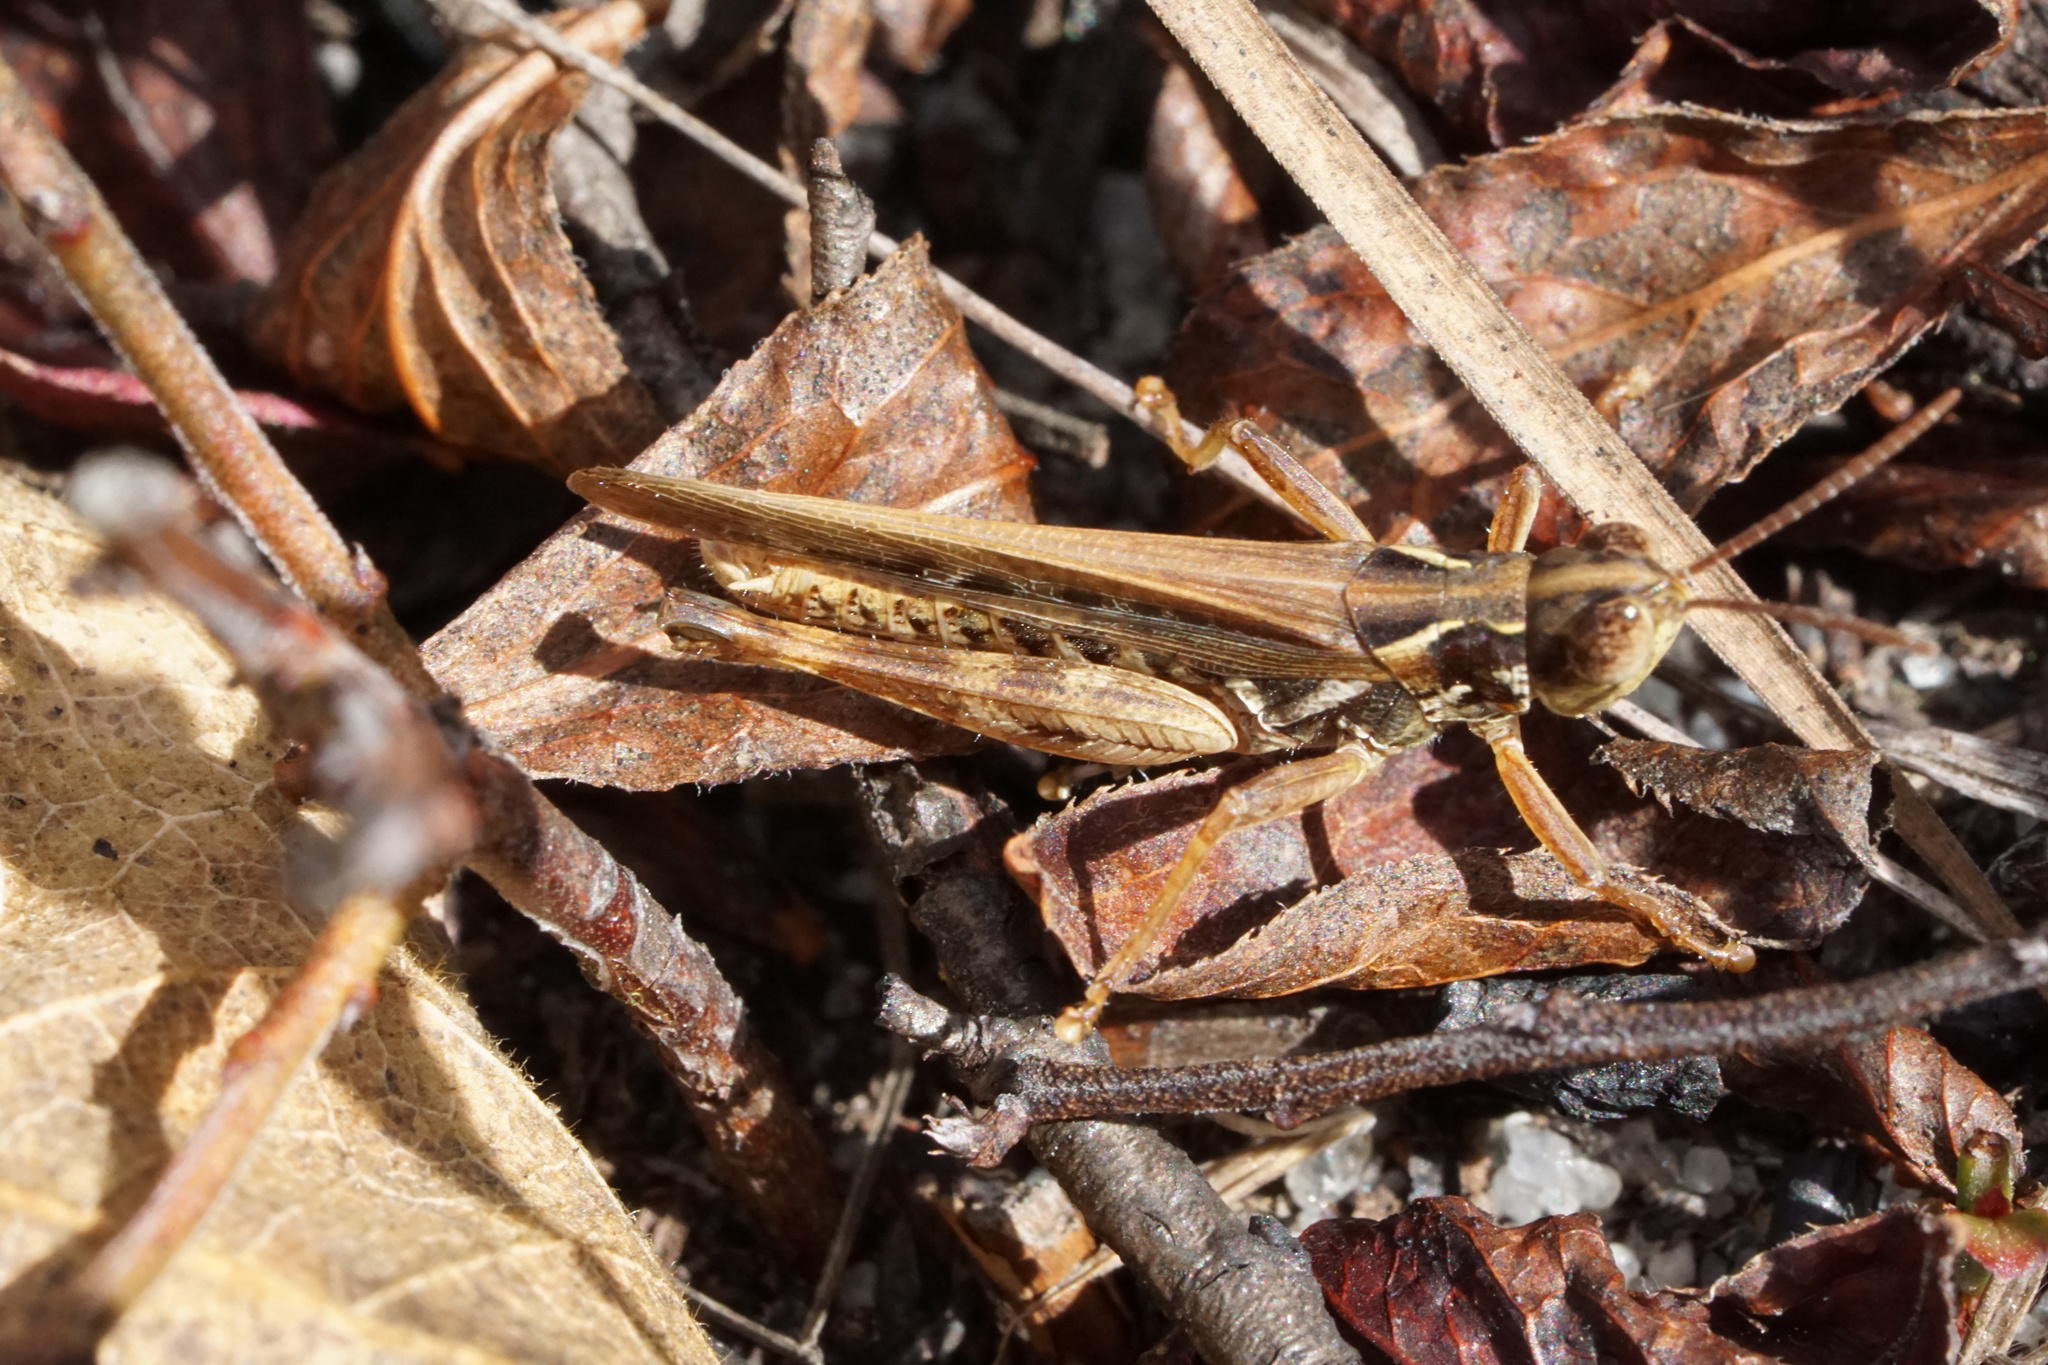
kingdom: Animalia
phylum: Arthropoda
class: Insecta
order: Orthoptera
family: Acrididae
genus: Orphulella
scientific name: Orphulella pelidna
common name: Spotted-wing grasshopper
